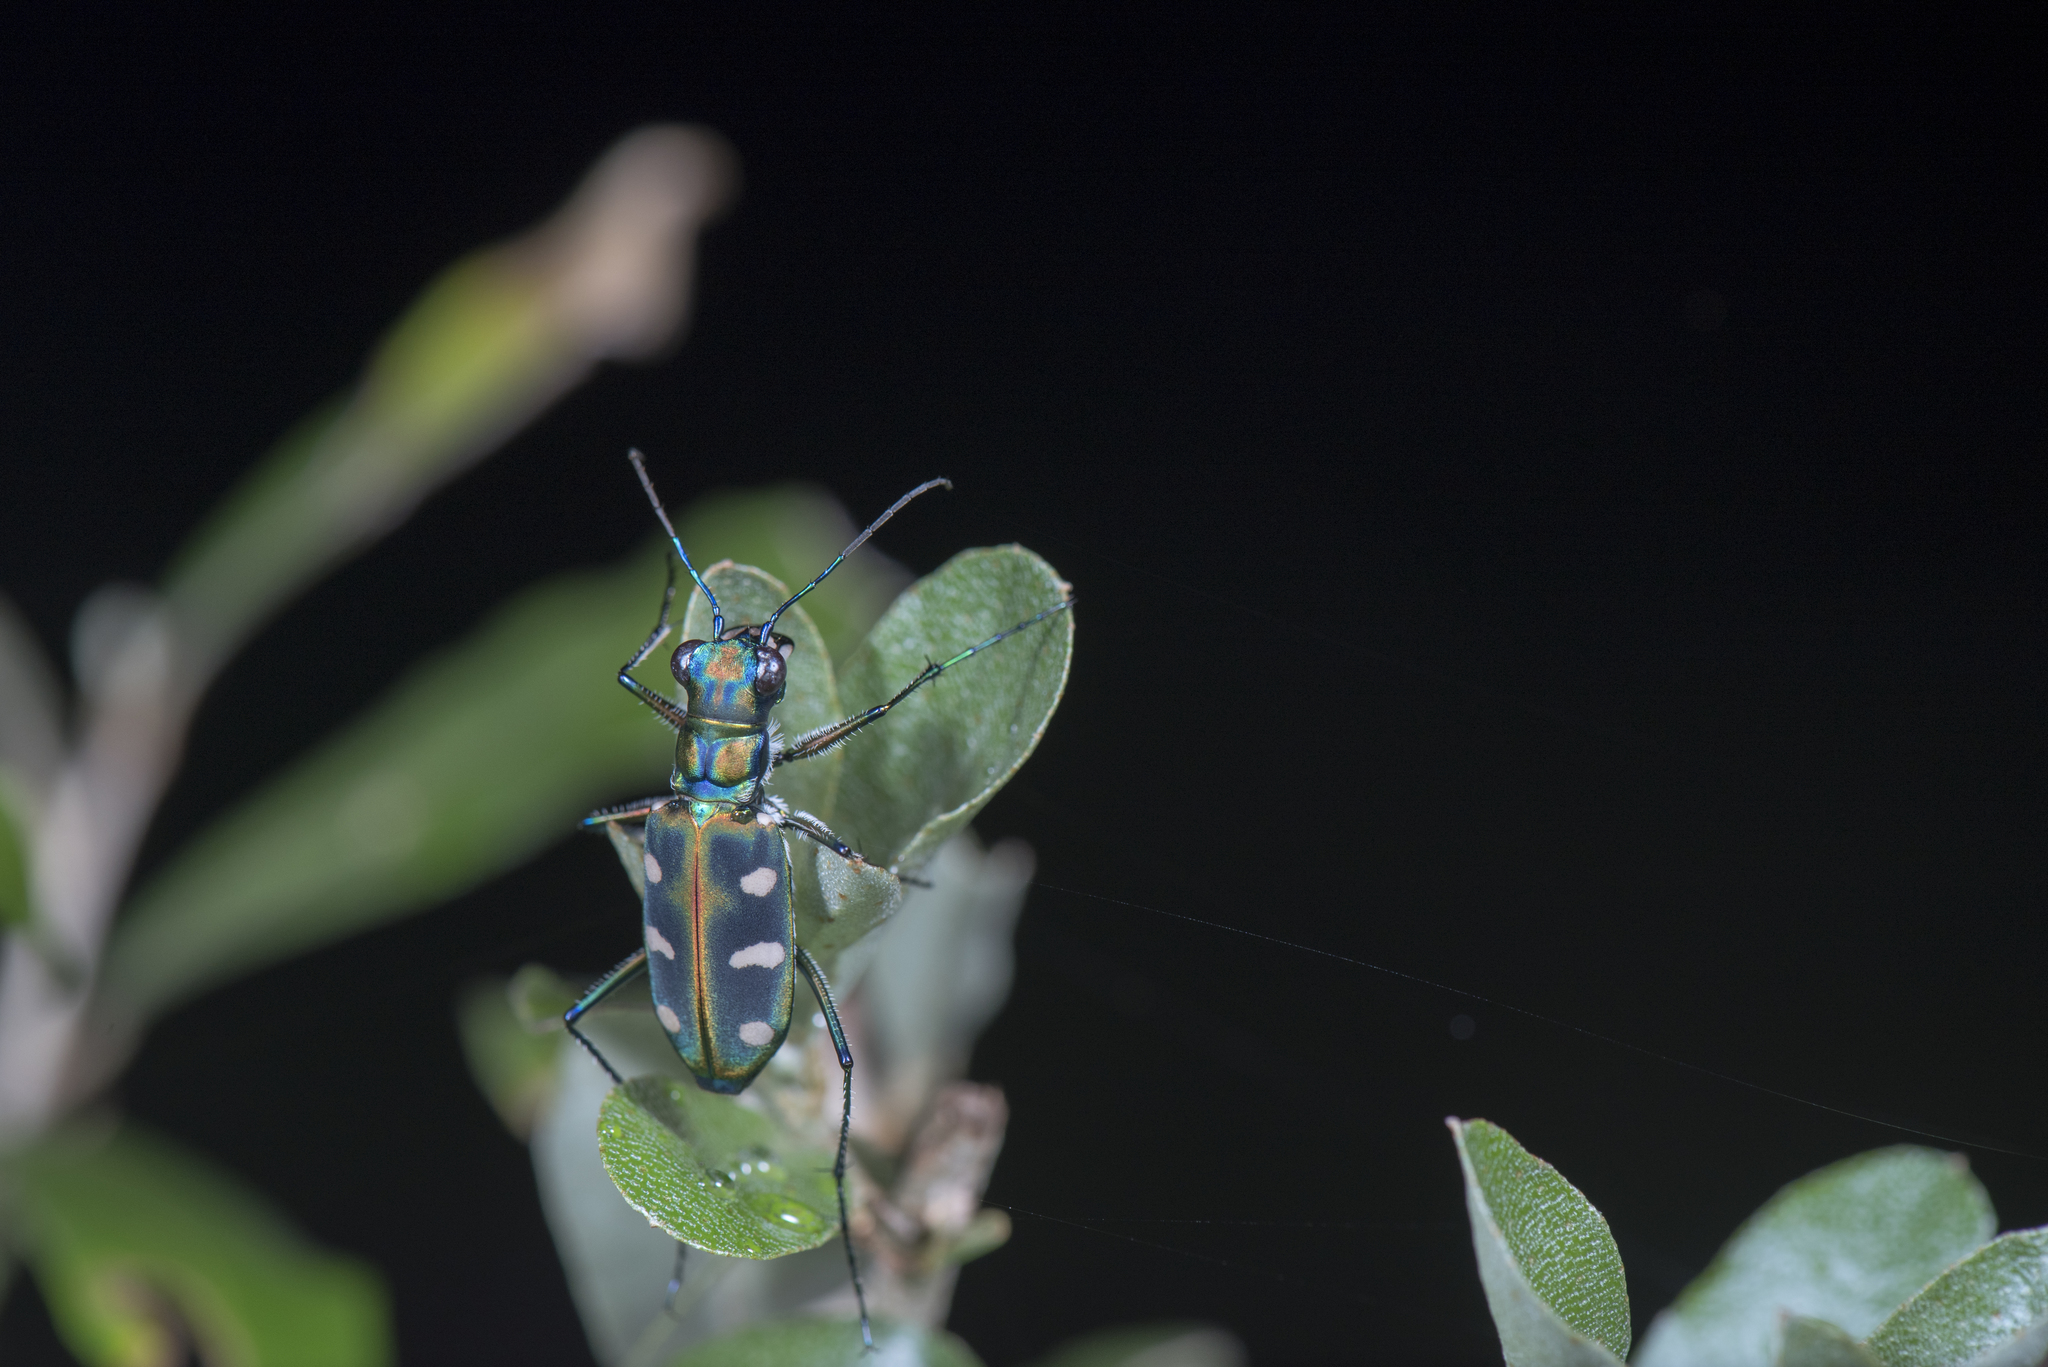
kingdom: Animalia
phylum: Arthropoda
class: Insecta
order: Coleoptera
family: Carabidae
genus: Cicindela
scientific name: Cicindela batesi
